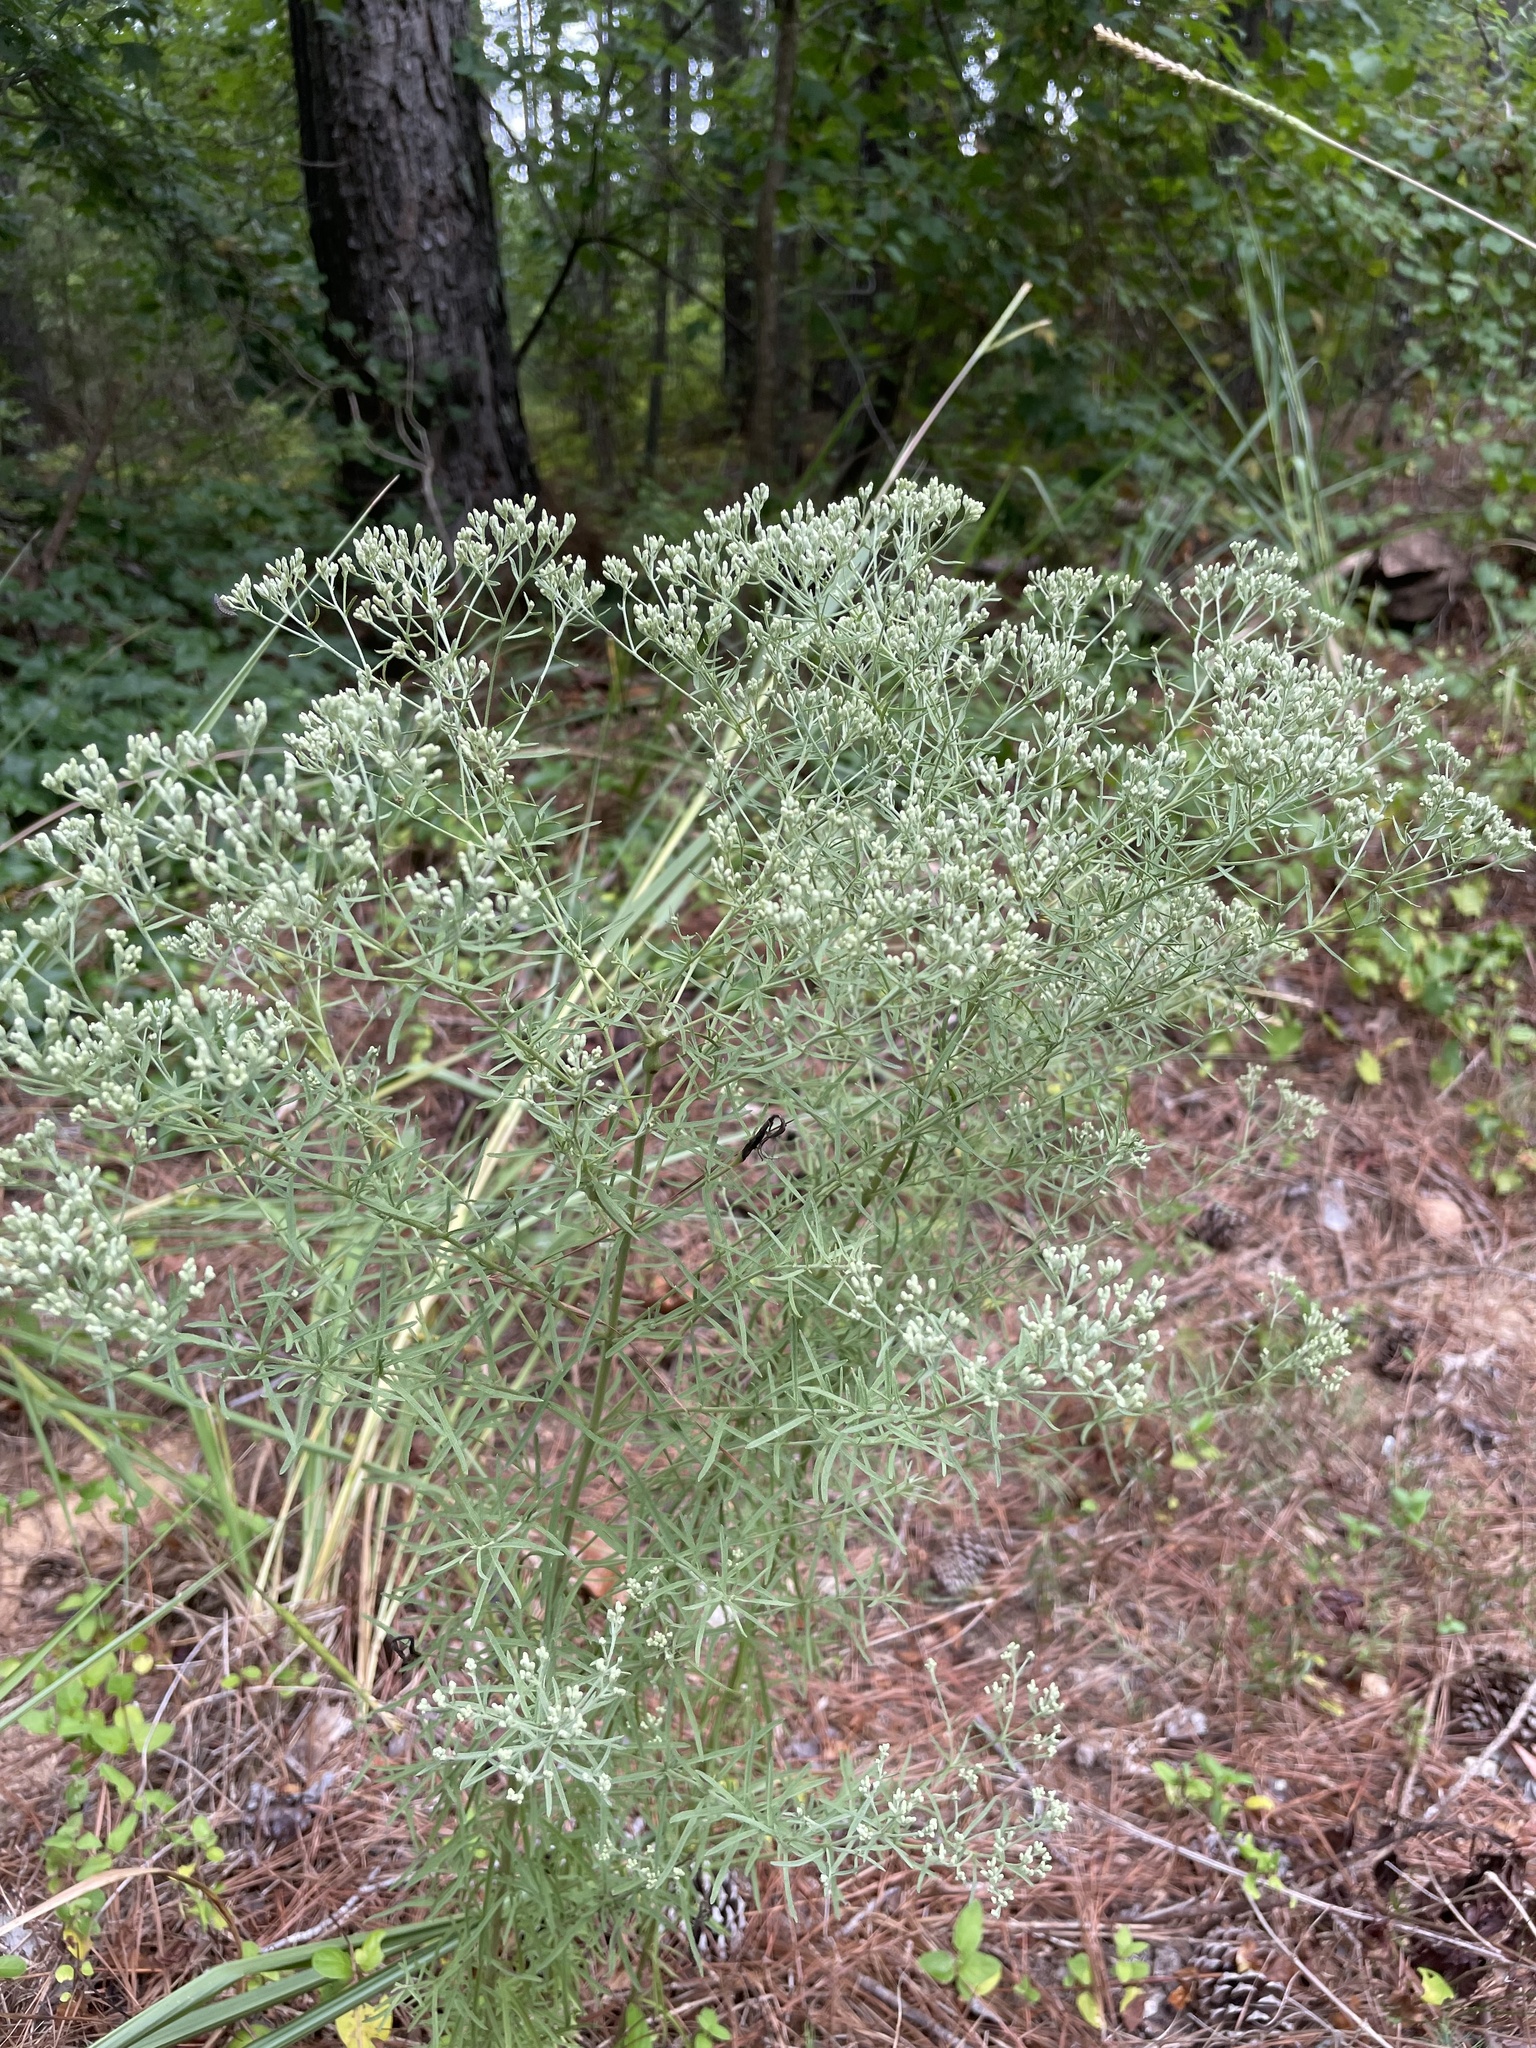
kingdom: Plantae
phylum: Tracheophyta
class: Magnoliopsida
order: Asterales
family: Asteraceae
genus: Eupatorium
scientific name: Eupatorium hyssopifolium
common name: Hyssop-leaf thoroughwort
